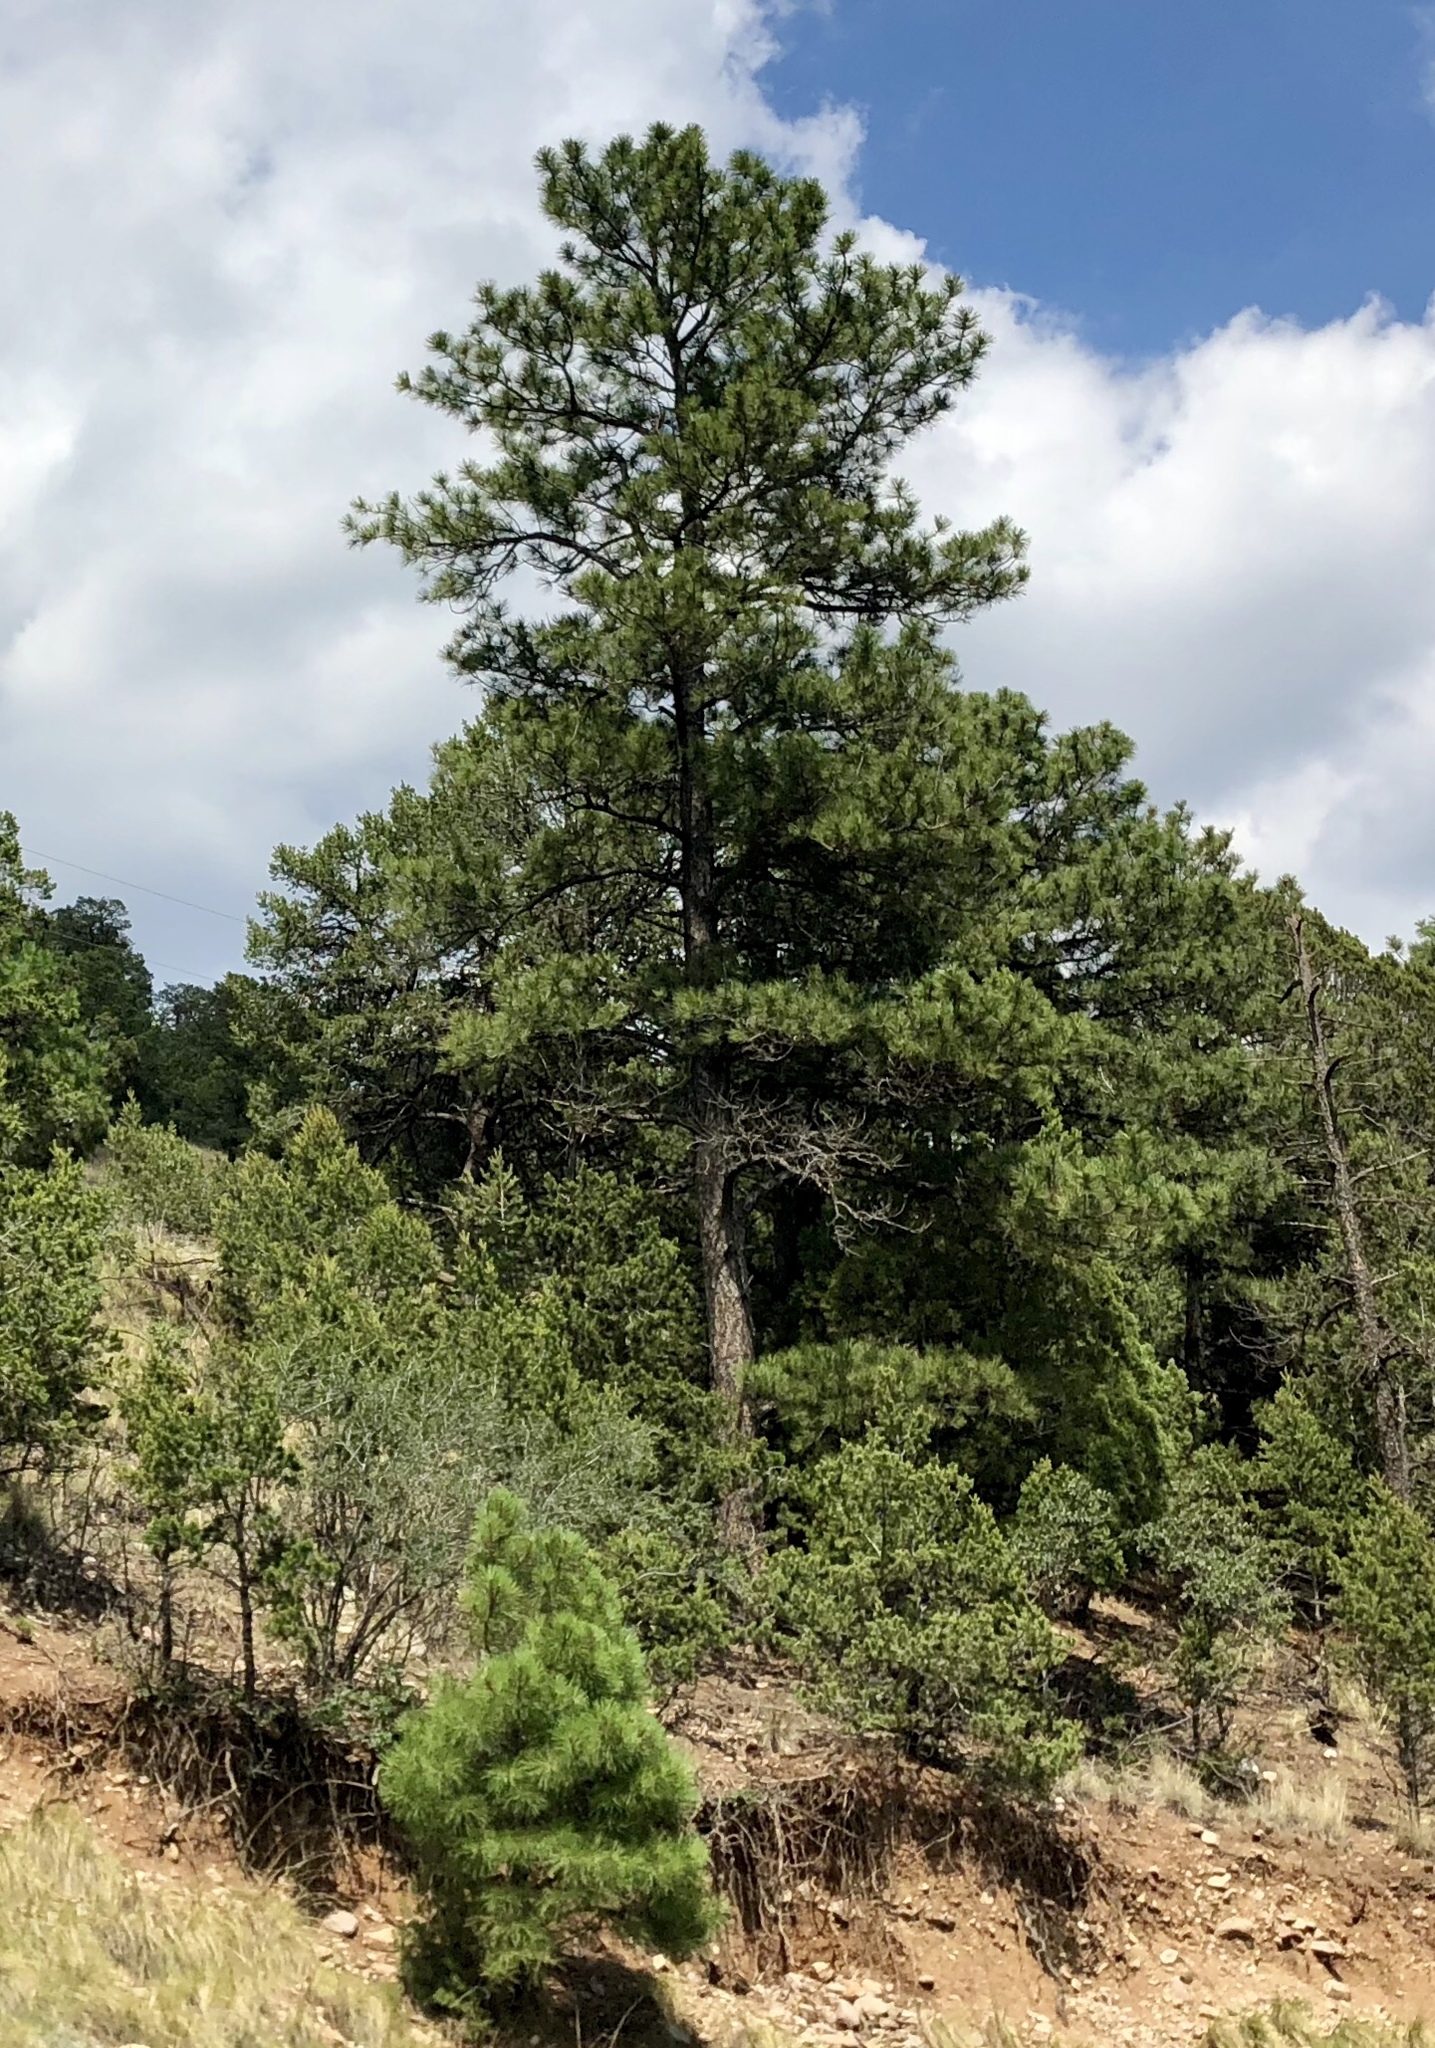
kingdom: Plantae
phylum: Tracheophyta
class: Pinopsida
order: Pinales
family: Pinaceae
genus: Pinus
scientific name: Pinus ponderosa
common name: Western yellow-pine
